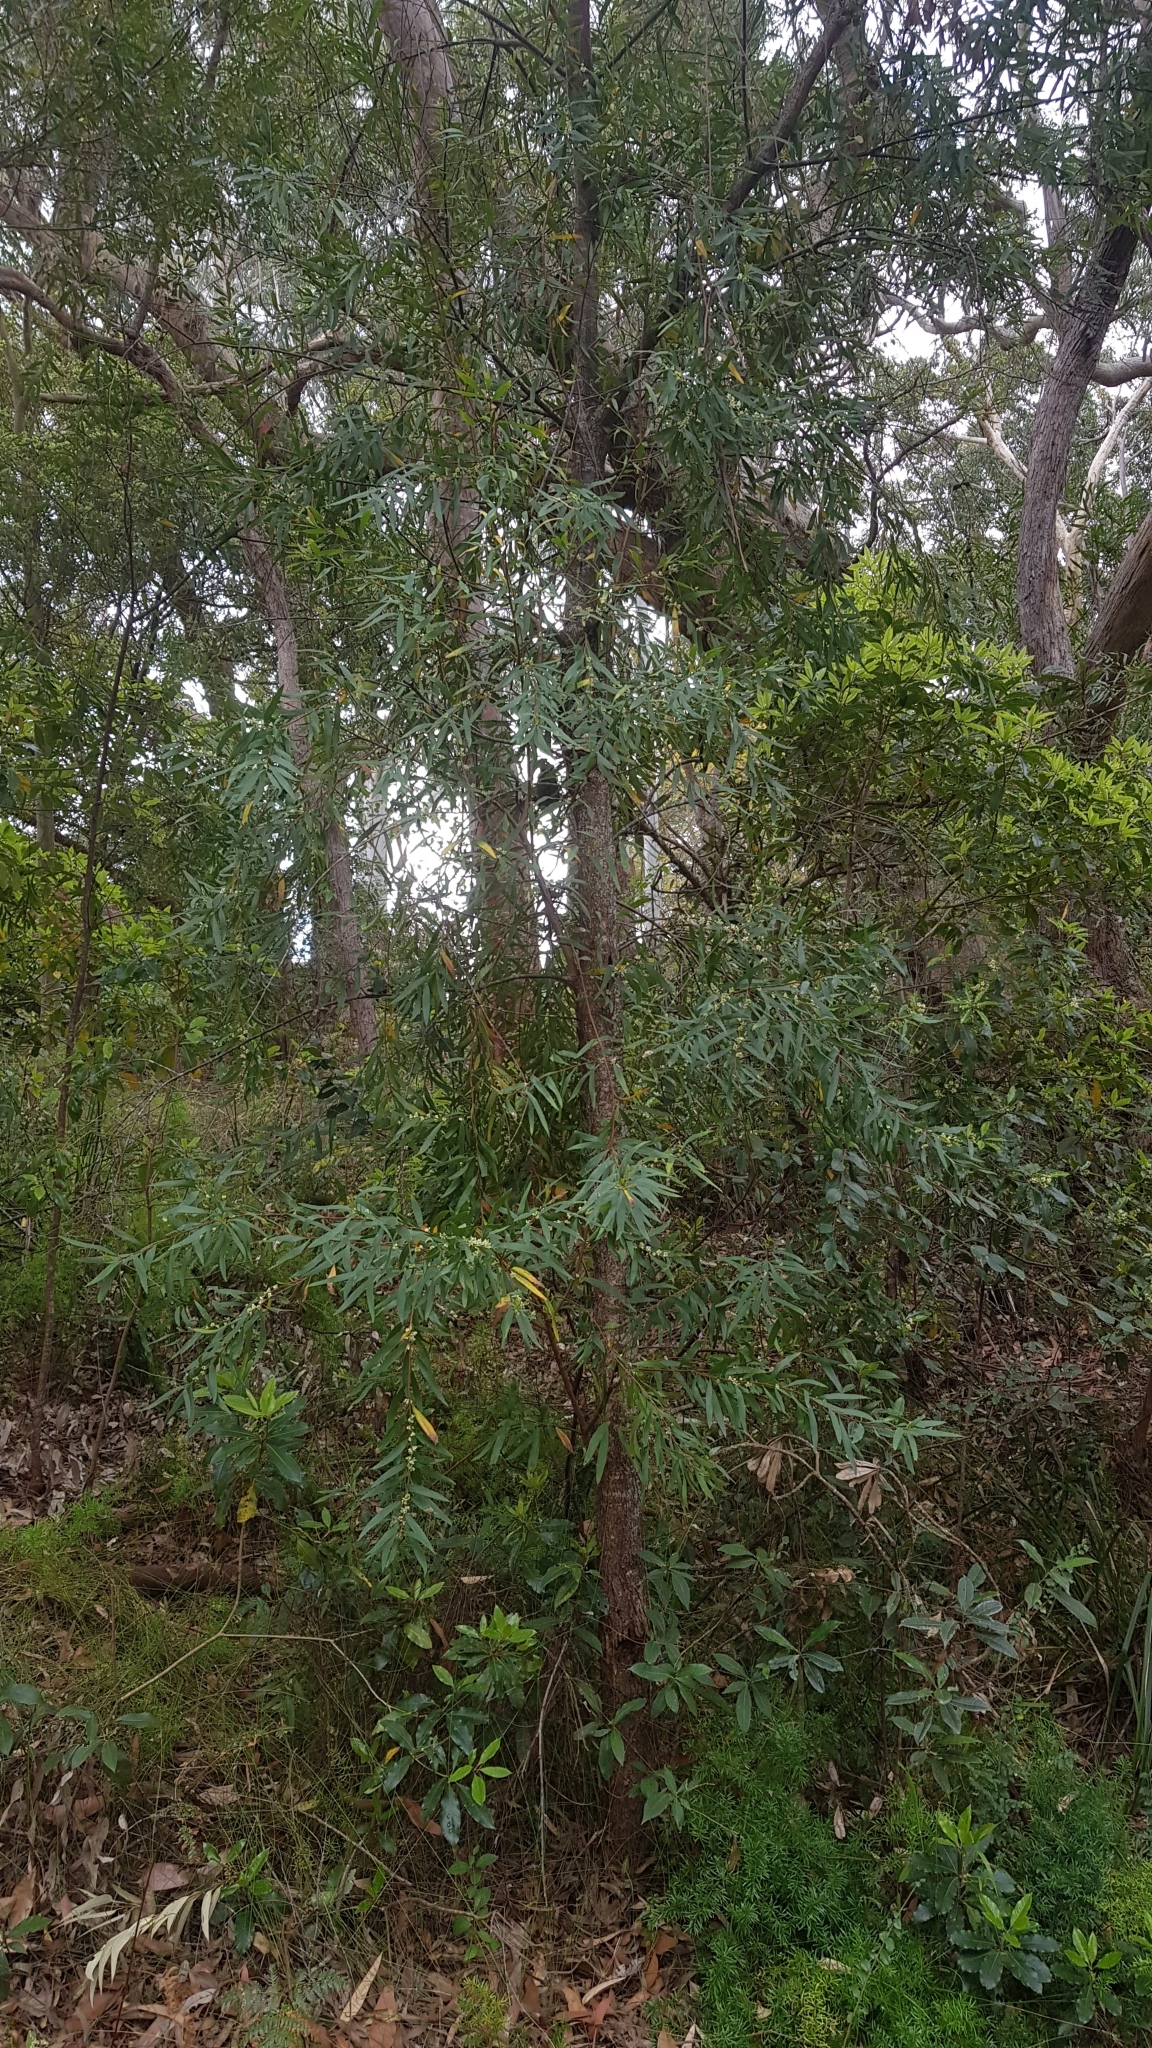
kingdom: Plantae
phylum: Tracheophyta
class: Magnoliopsida
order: Proteales
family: Proteaceae
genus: Hakea
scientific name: Hakea salicifolia
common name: Willow hakea
